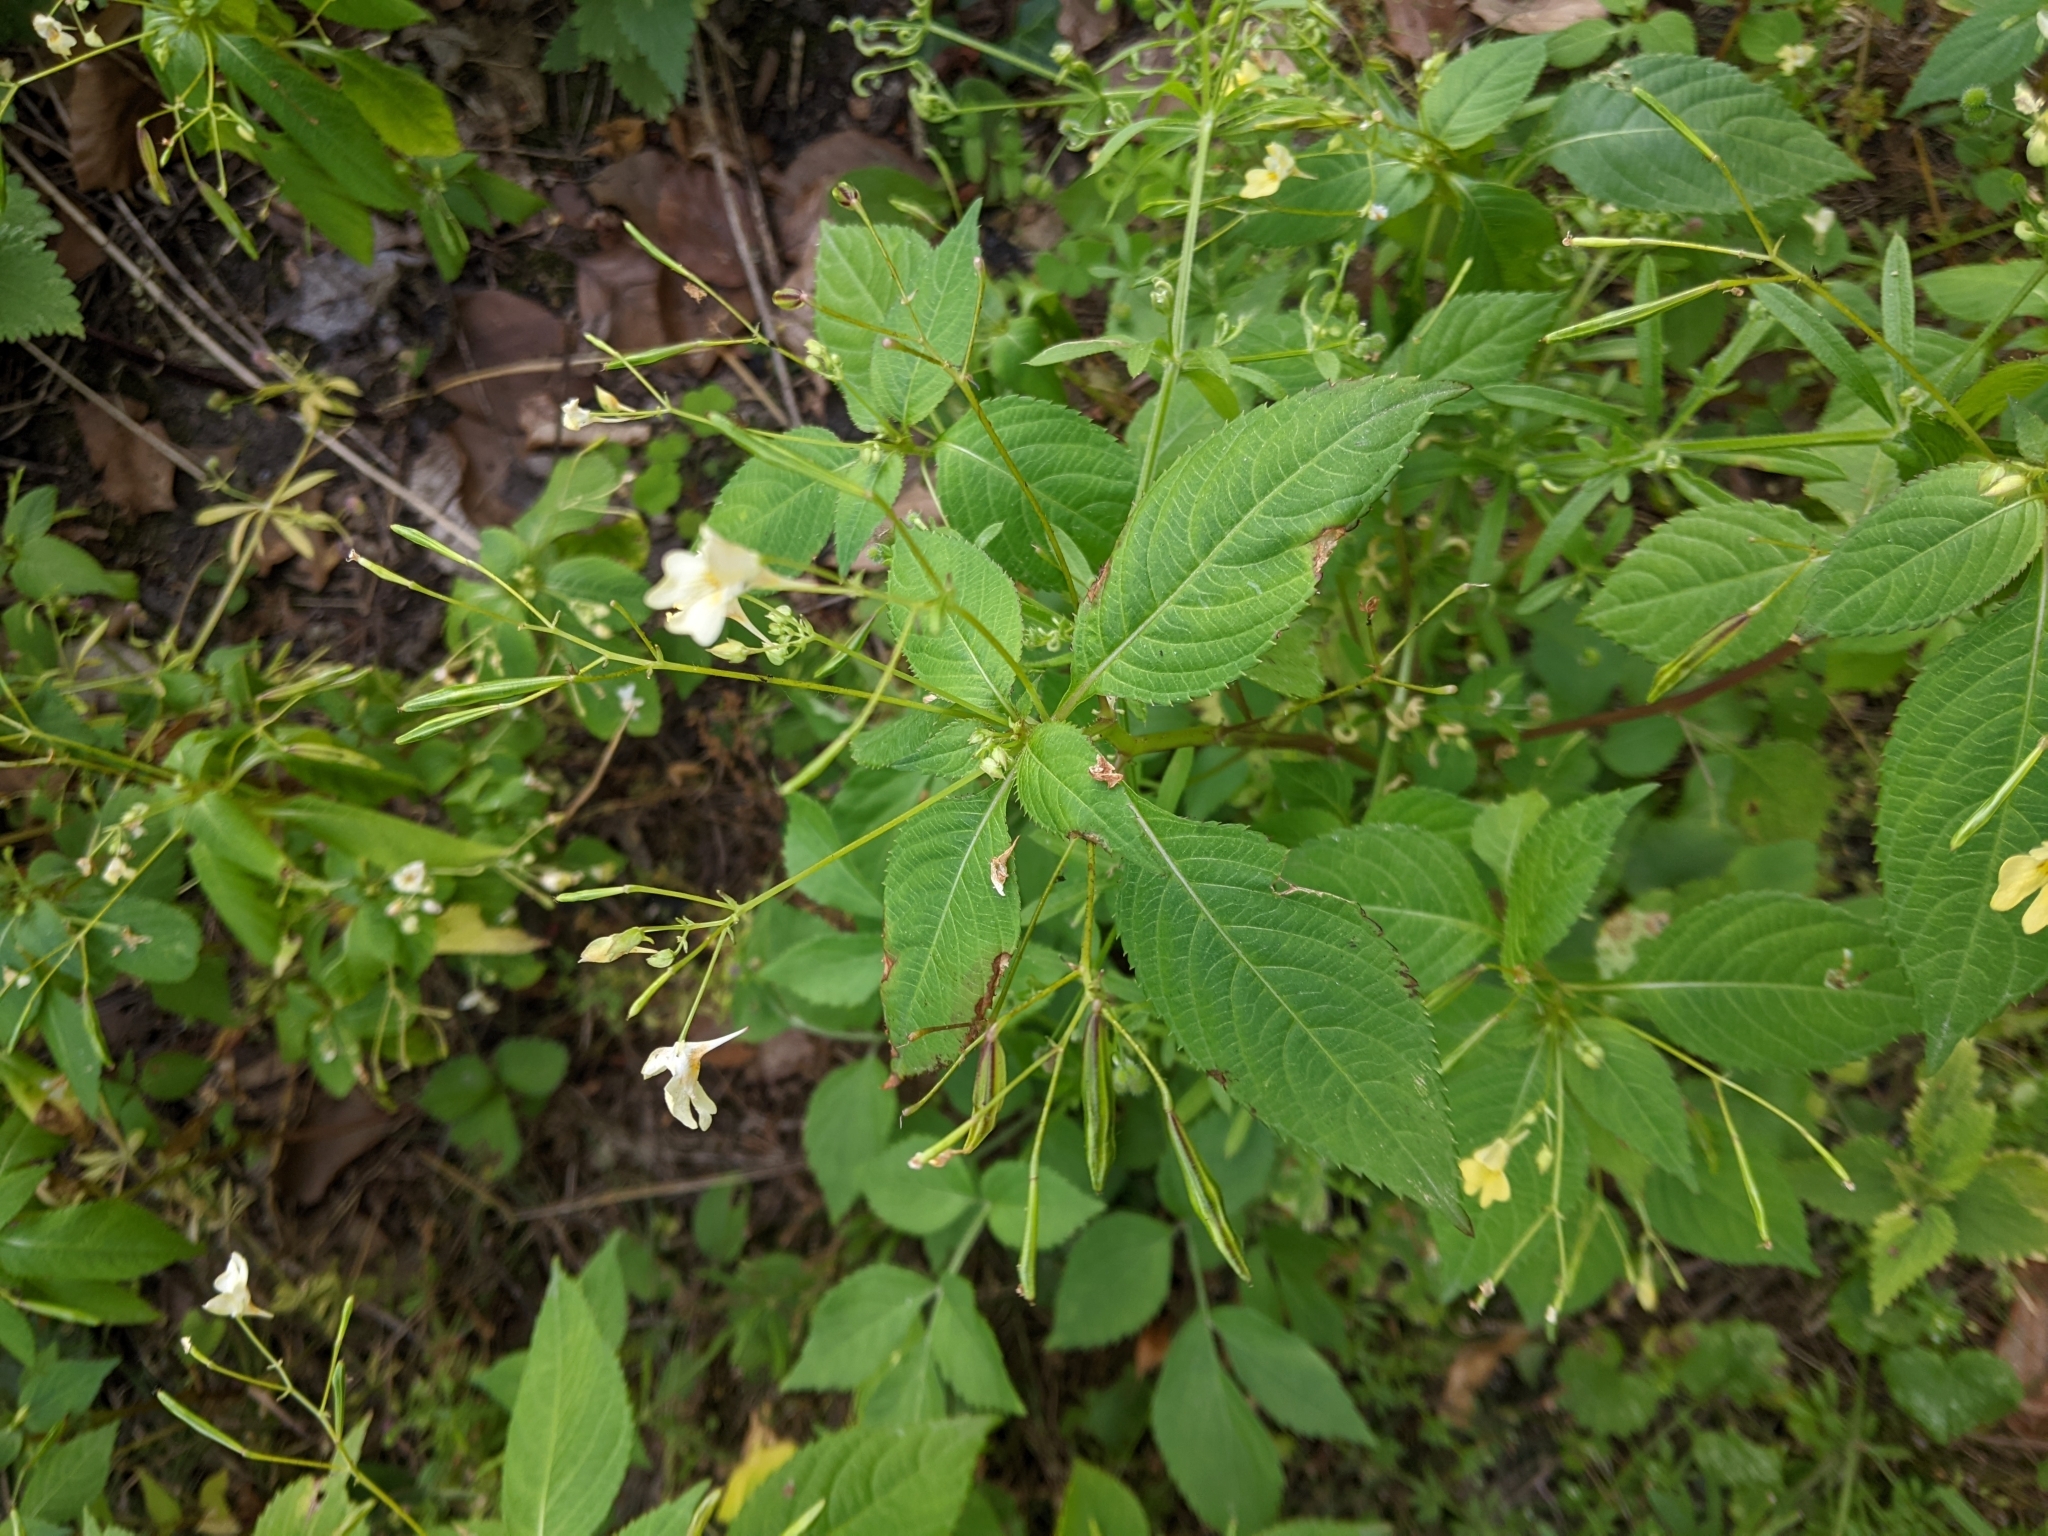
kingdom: Plantae
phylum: Tracheophyta
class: Magnoliopsida
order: Ericales
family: Balsaminaceae
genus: Impatiens
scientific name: Impatiens parviflora
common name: Small balsam
